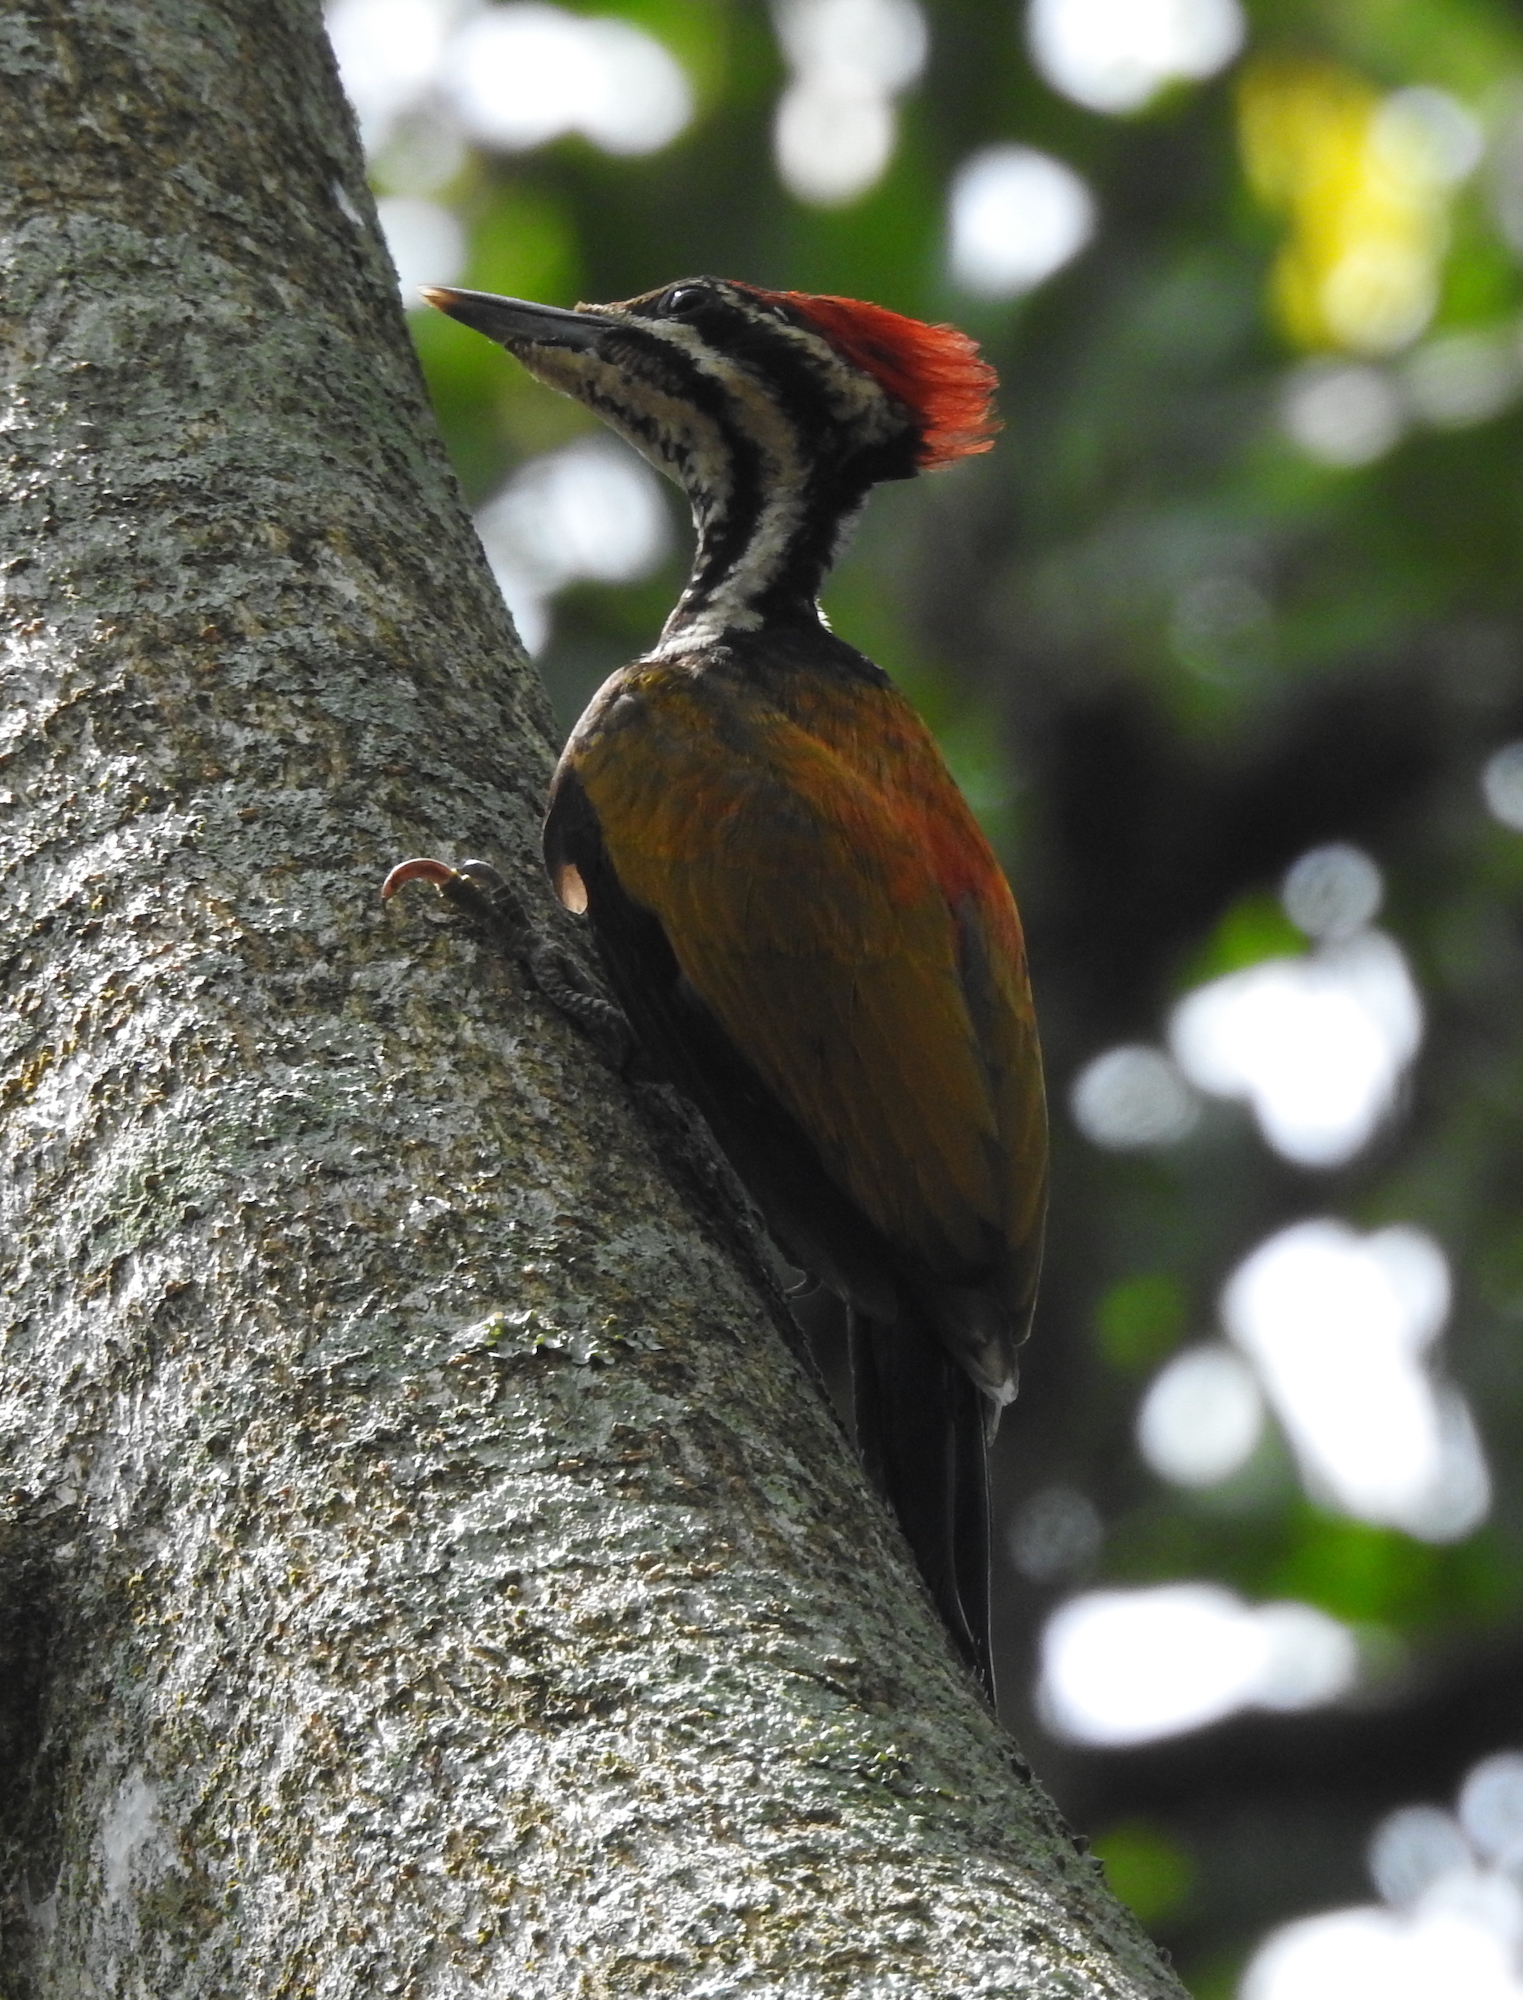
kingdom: Animalia
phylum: Chordata
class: Aves
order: Piciformes
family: Picidae
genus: Dinopium
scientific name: Dinopium javanense
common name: Common flameback
